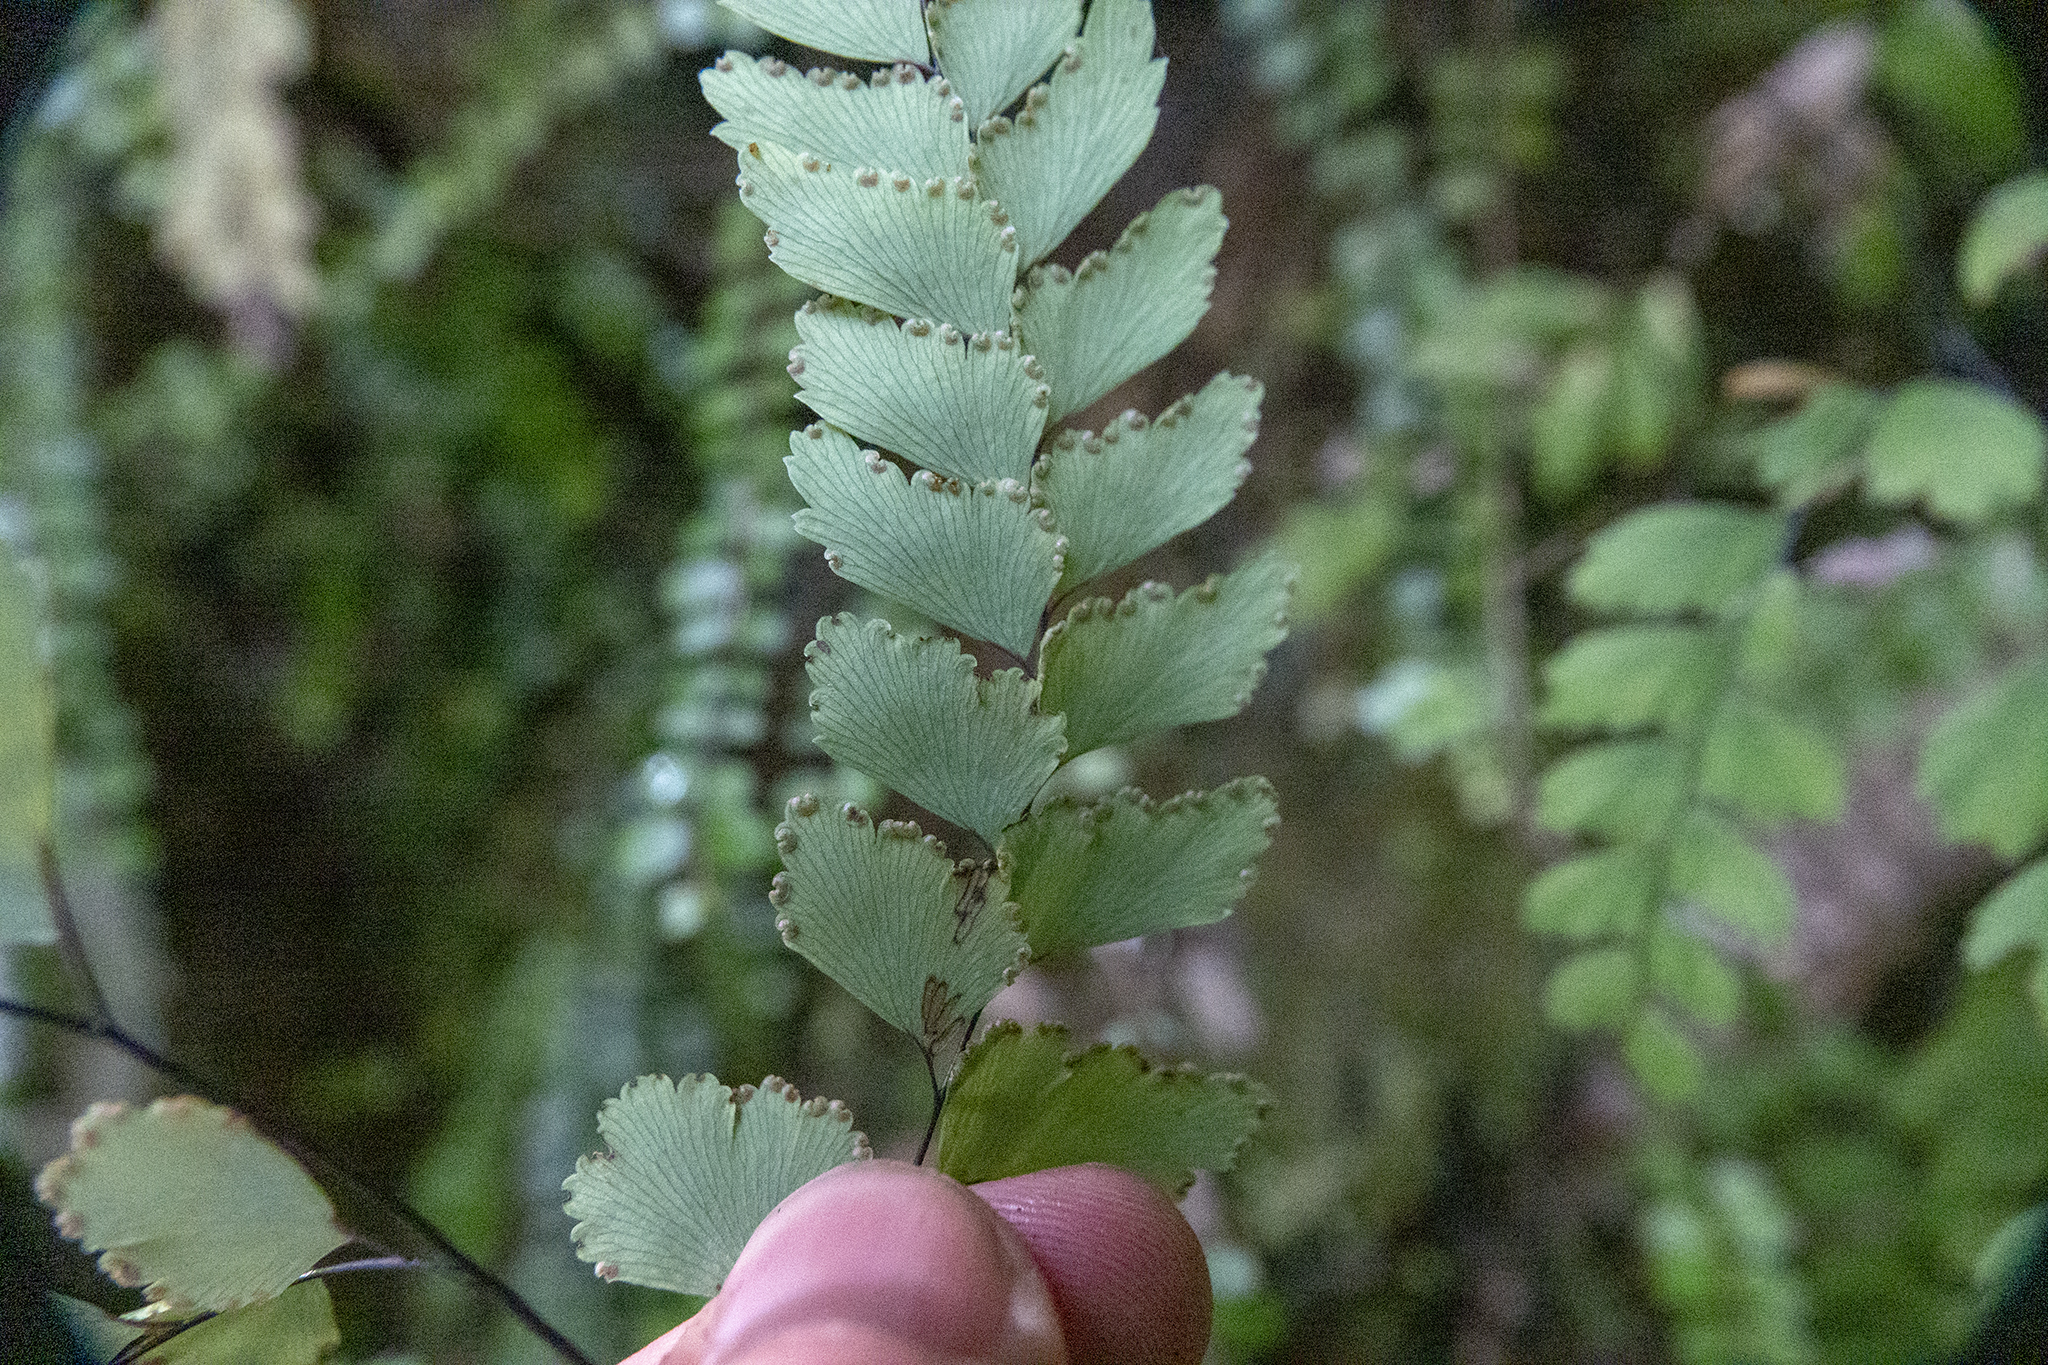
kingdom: Plantae
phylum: Tracheophyta
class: Polypodiopsida
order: Polypodiales
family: Pteridaceae
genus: Adiantum
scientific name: Adiantum cunninghamii
